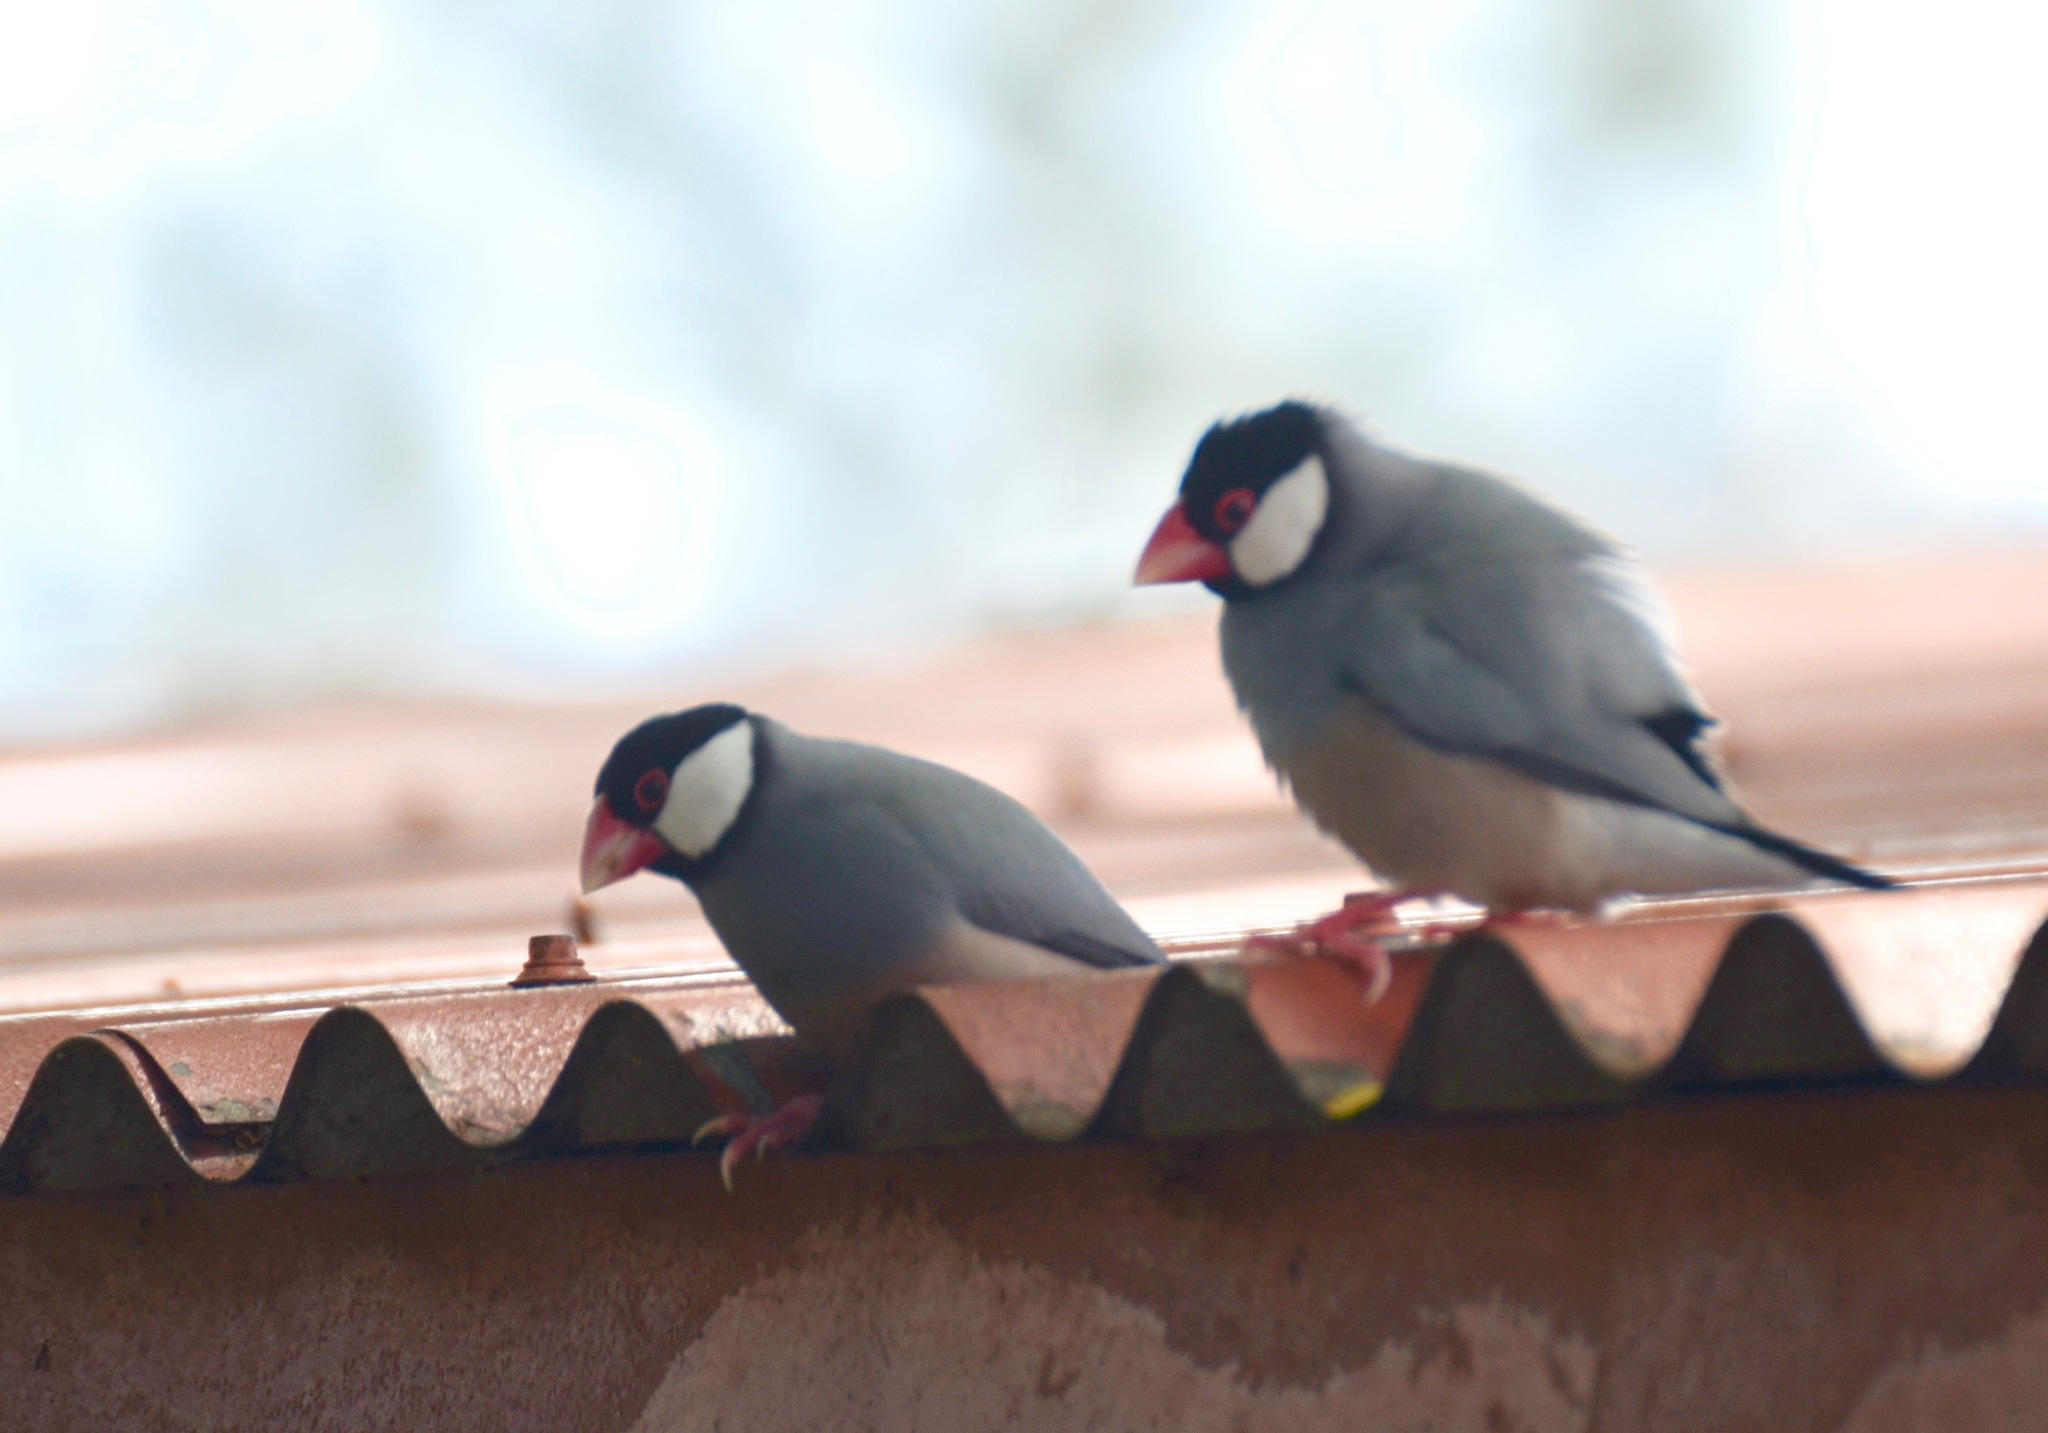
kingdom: Animalia
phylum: Chordata
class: Aves
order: Passeriformes
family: Estrildidae
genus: Lonchura
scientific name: Lonchura oryzivora
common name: Java sparrow
